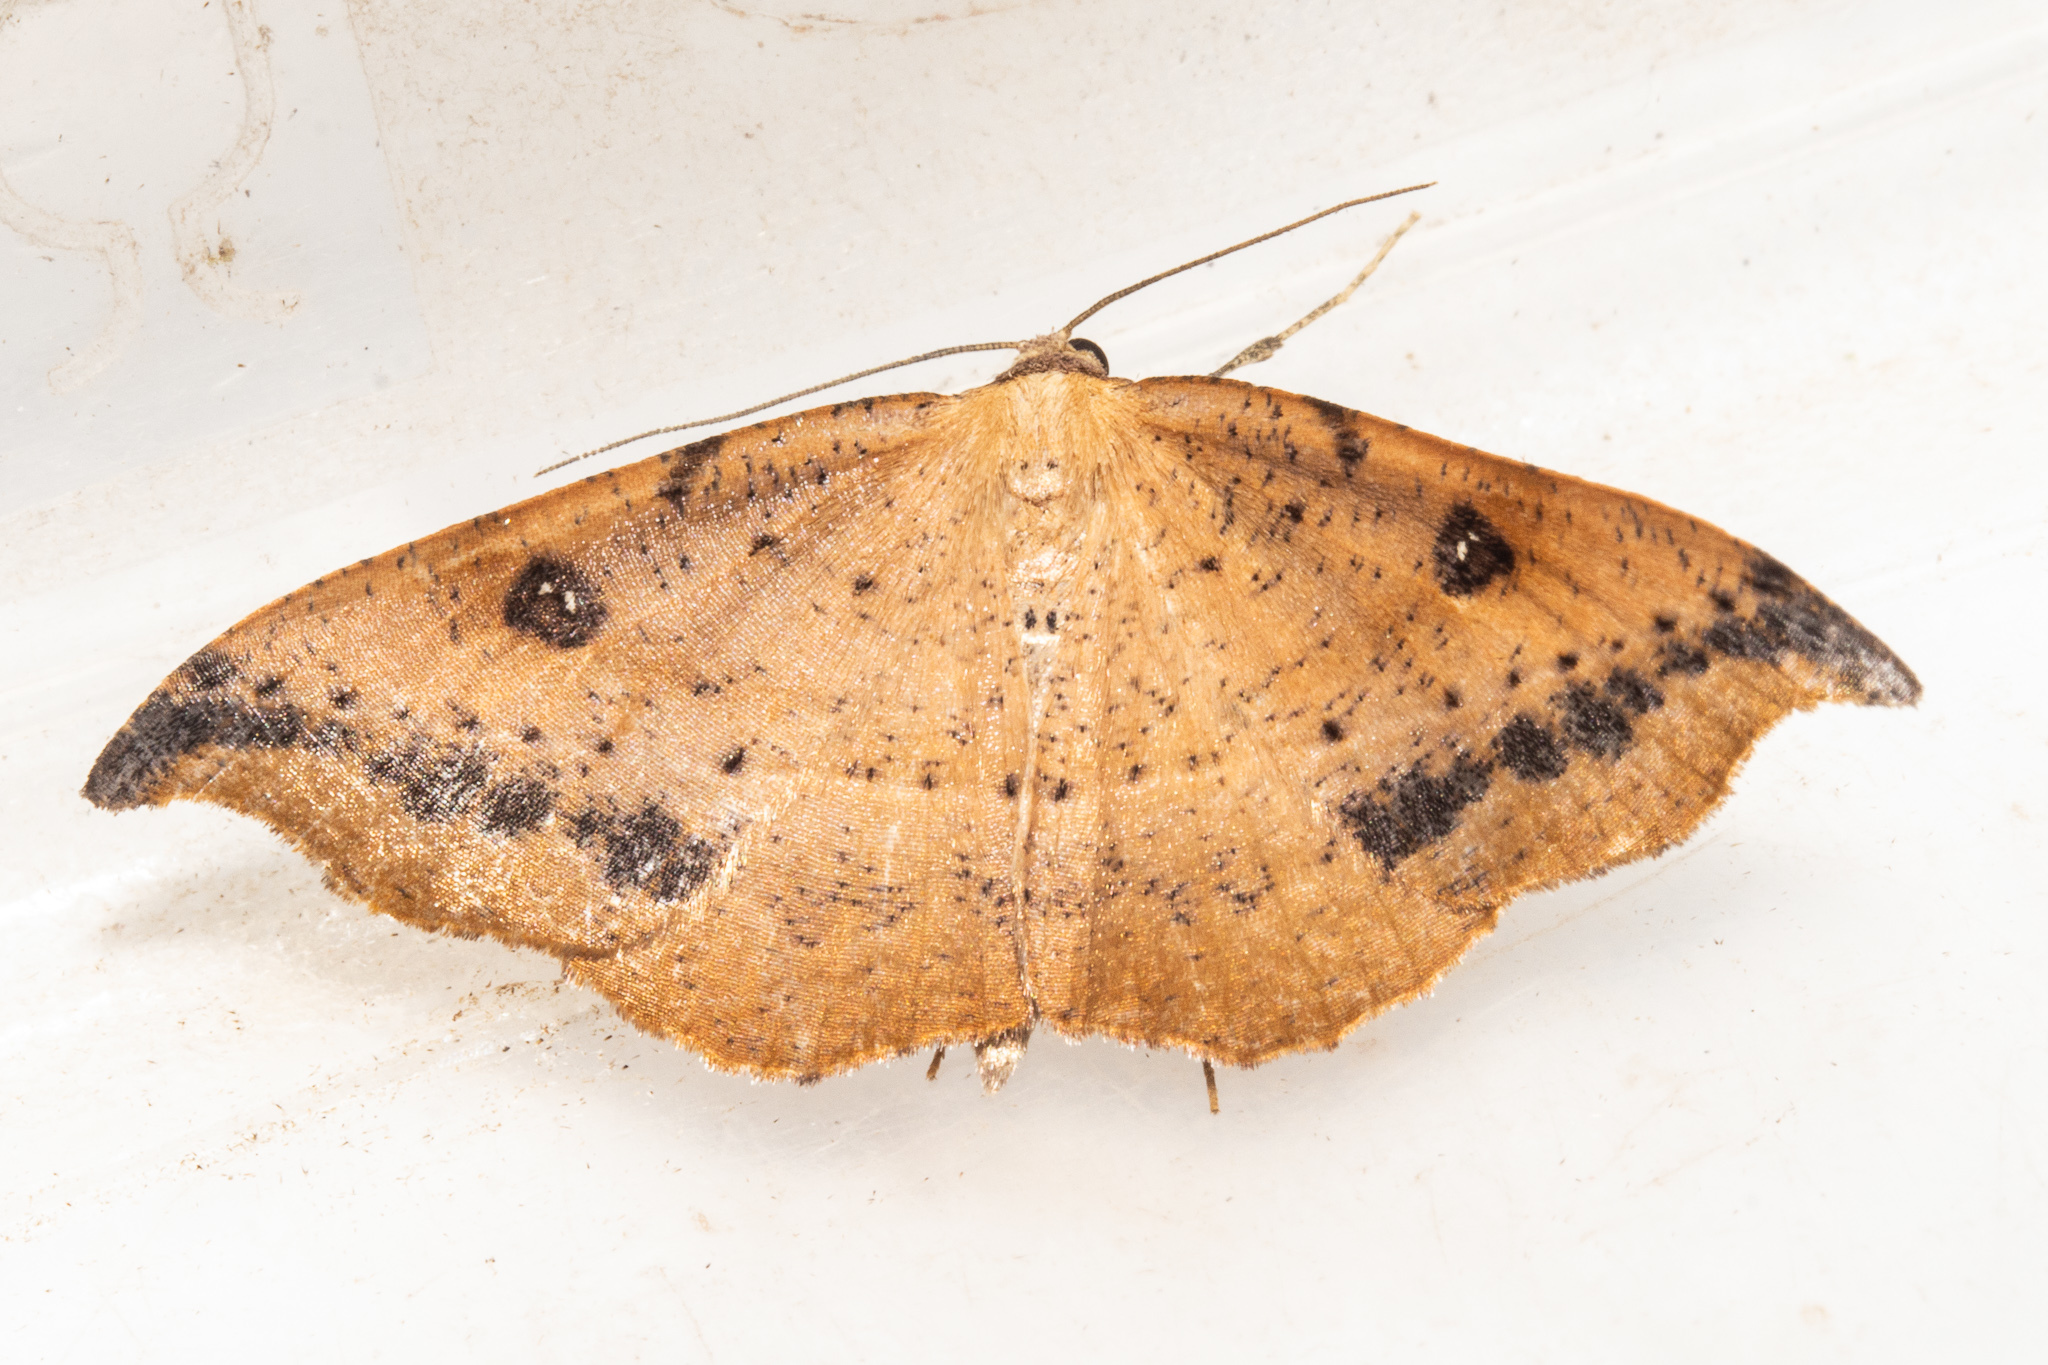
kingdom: Animalia
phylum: Arthropoda
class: Insecta
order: Lepidoptera
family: Geometridae
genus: Sarisa
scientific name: Sarisa muriferata
